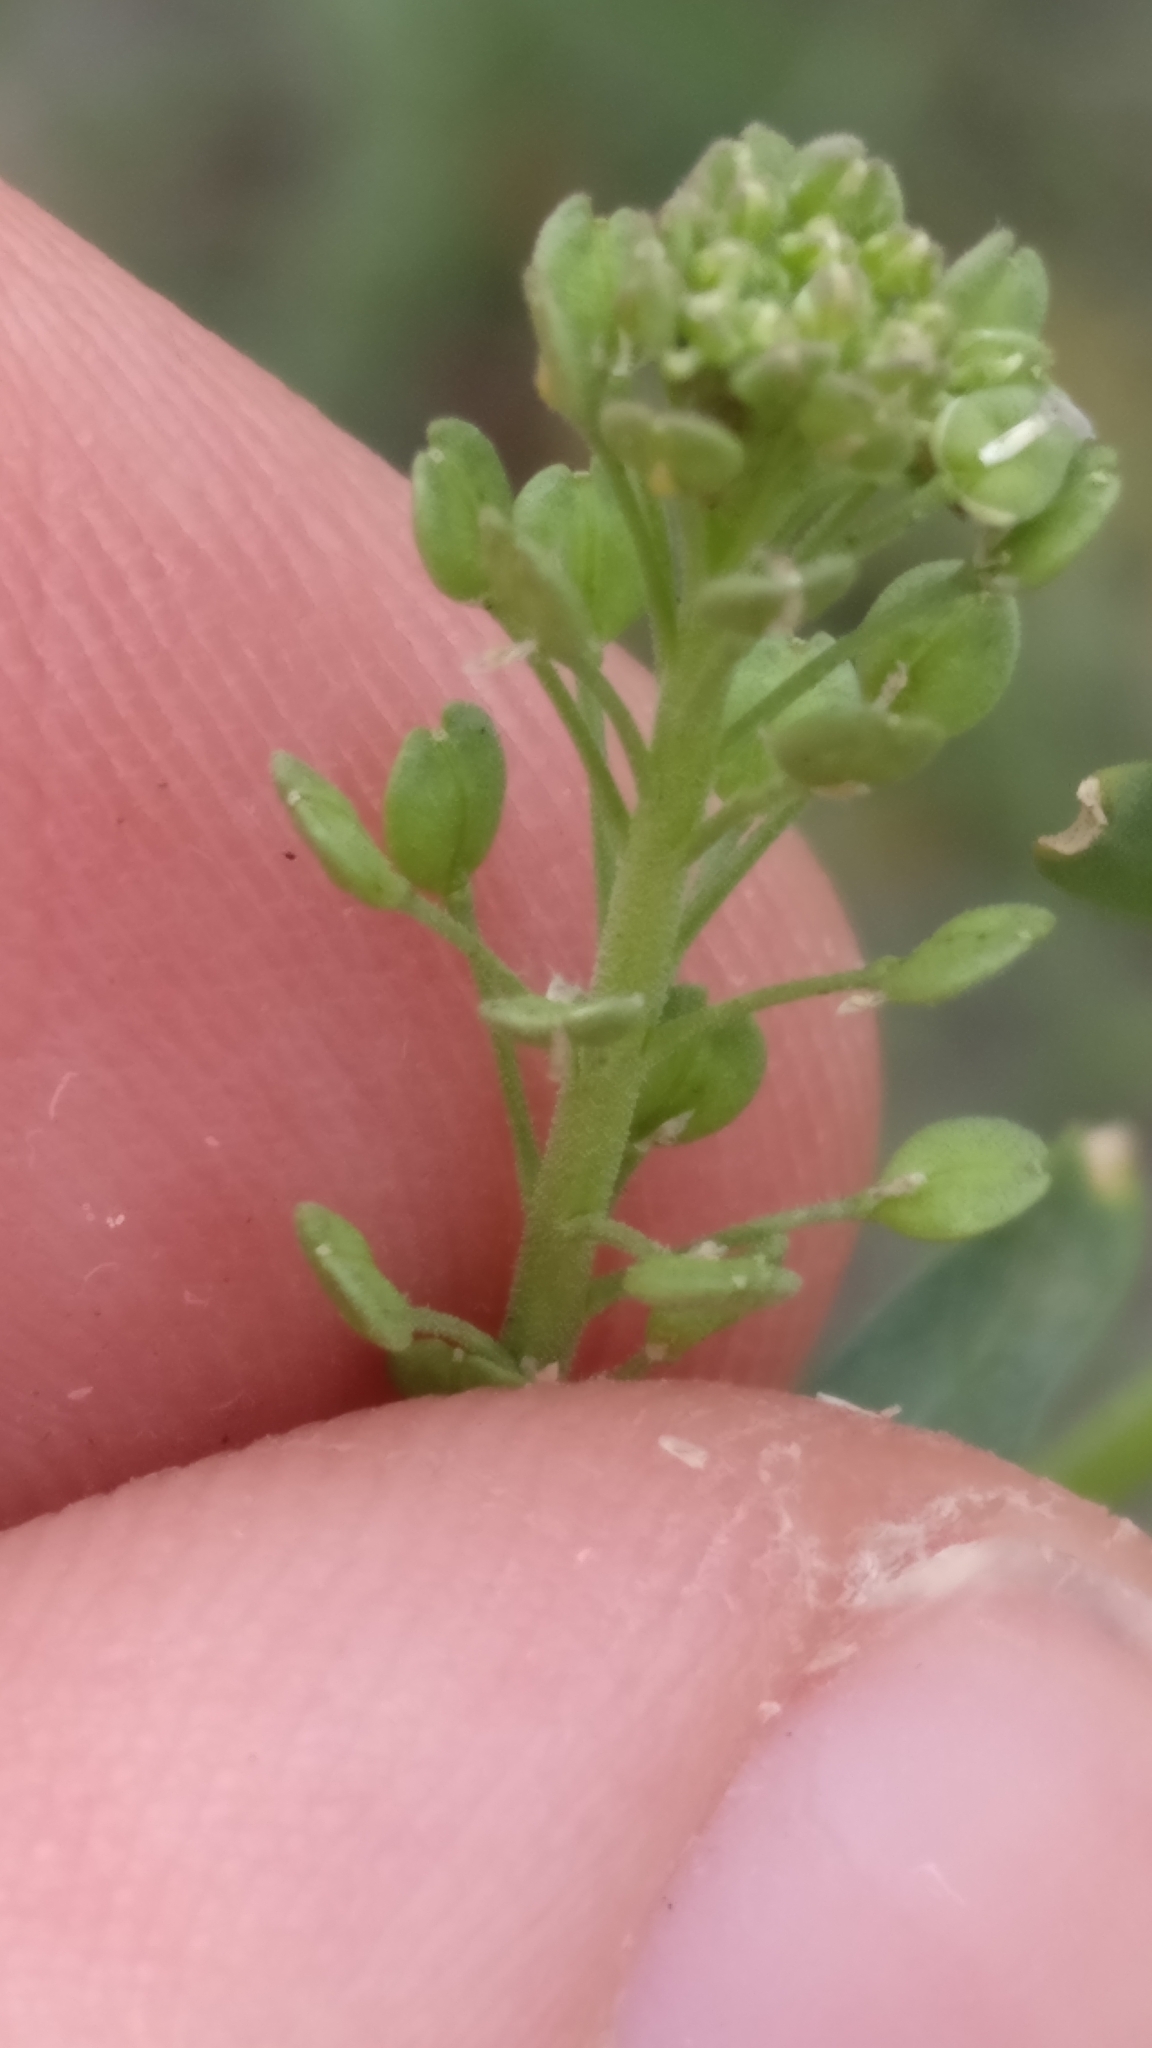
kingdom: Plantae
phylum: Tracheophyta
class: Magnoliopsida
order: Brassicales
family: Brassicaceae
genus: Lepidium
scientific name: Lepidium ruderale
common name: Narrow-leaved pepperwort
